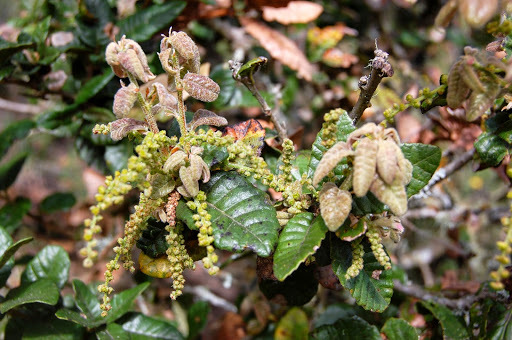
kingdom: Plantae
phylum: Tracheophyta
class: Magnoliopsida
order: Fagales
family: Fagaceae
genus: Quercus
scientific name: Quercus tomentella
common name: Island oak
